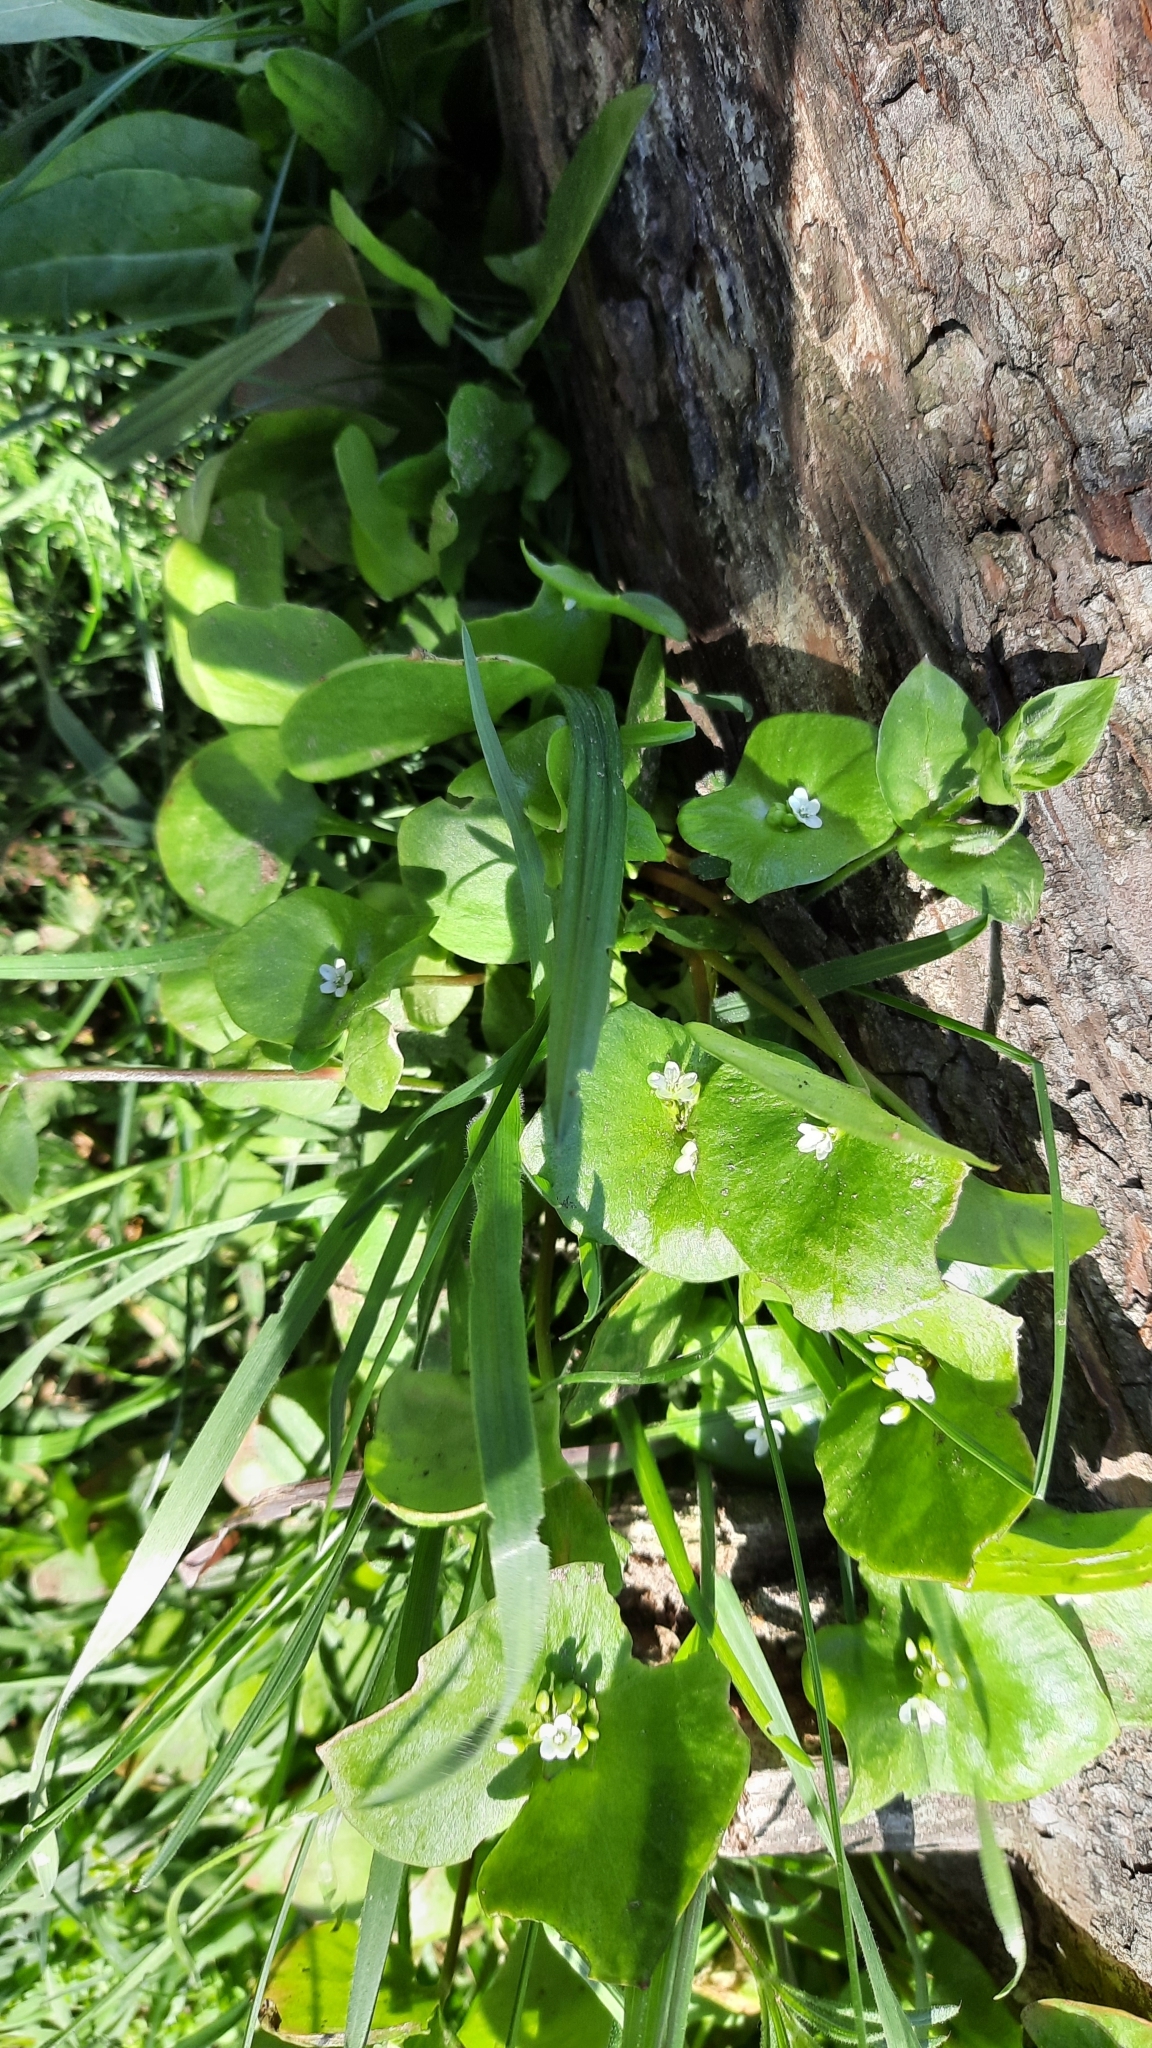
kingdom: Plantae
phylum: Tracheophyta
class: Magnoliopsida
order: Caryophyllales
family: Montiaceae
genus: Claytonia
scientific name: Claytonia perfoliata
